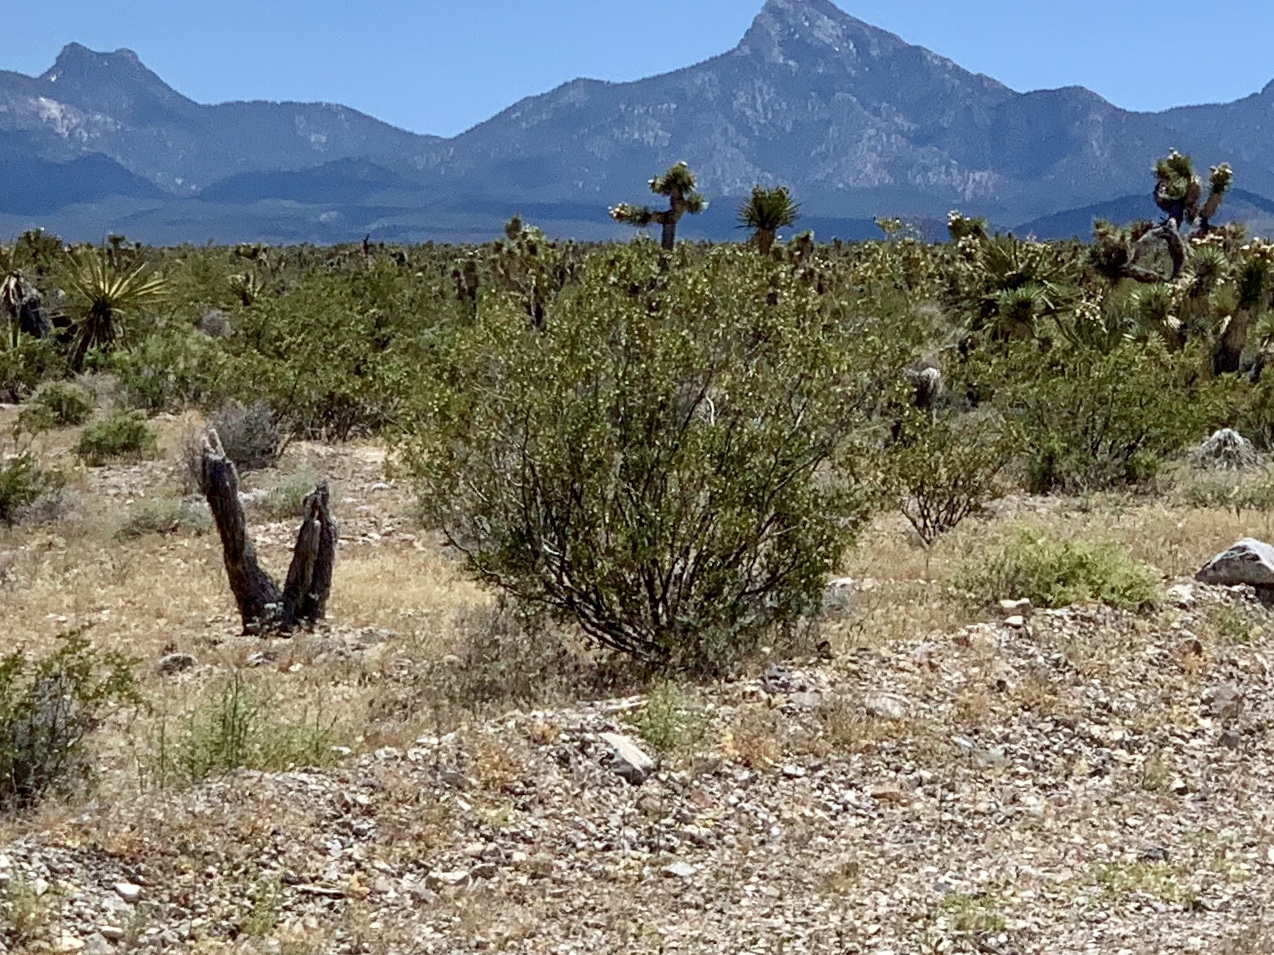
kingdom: Plantae
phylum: Tracheophyta
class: Magnoliopsida
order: Zygophyllales
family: Zygophyllaceae
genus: Larrea
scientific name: Larrea tridentata
